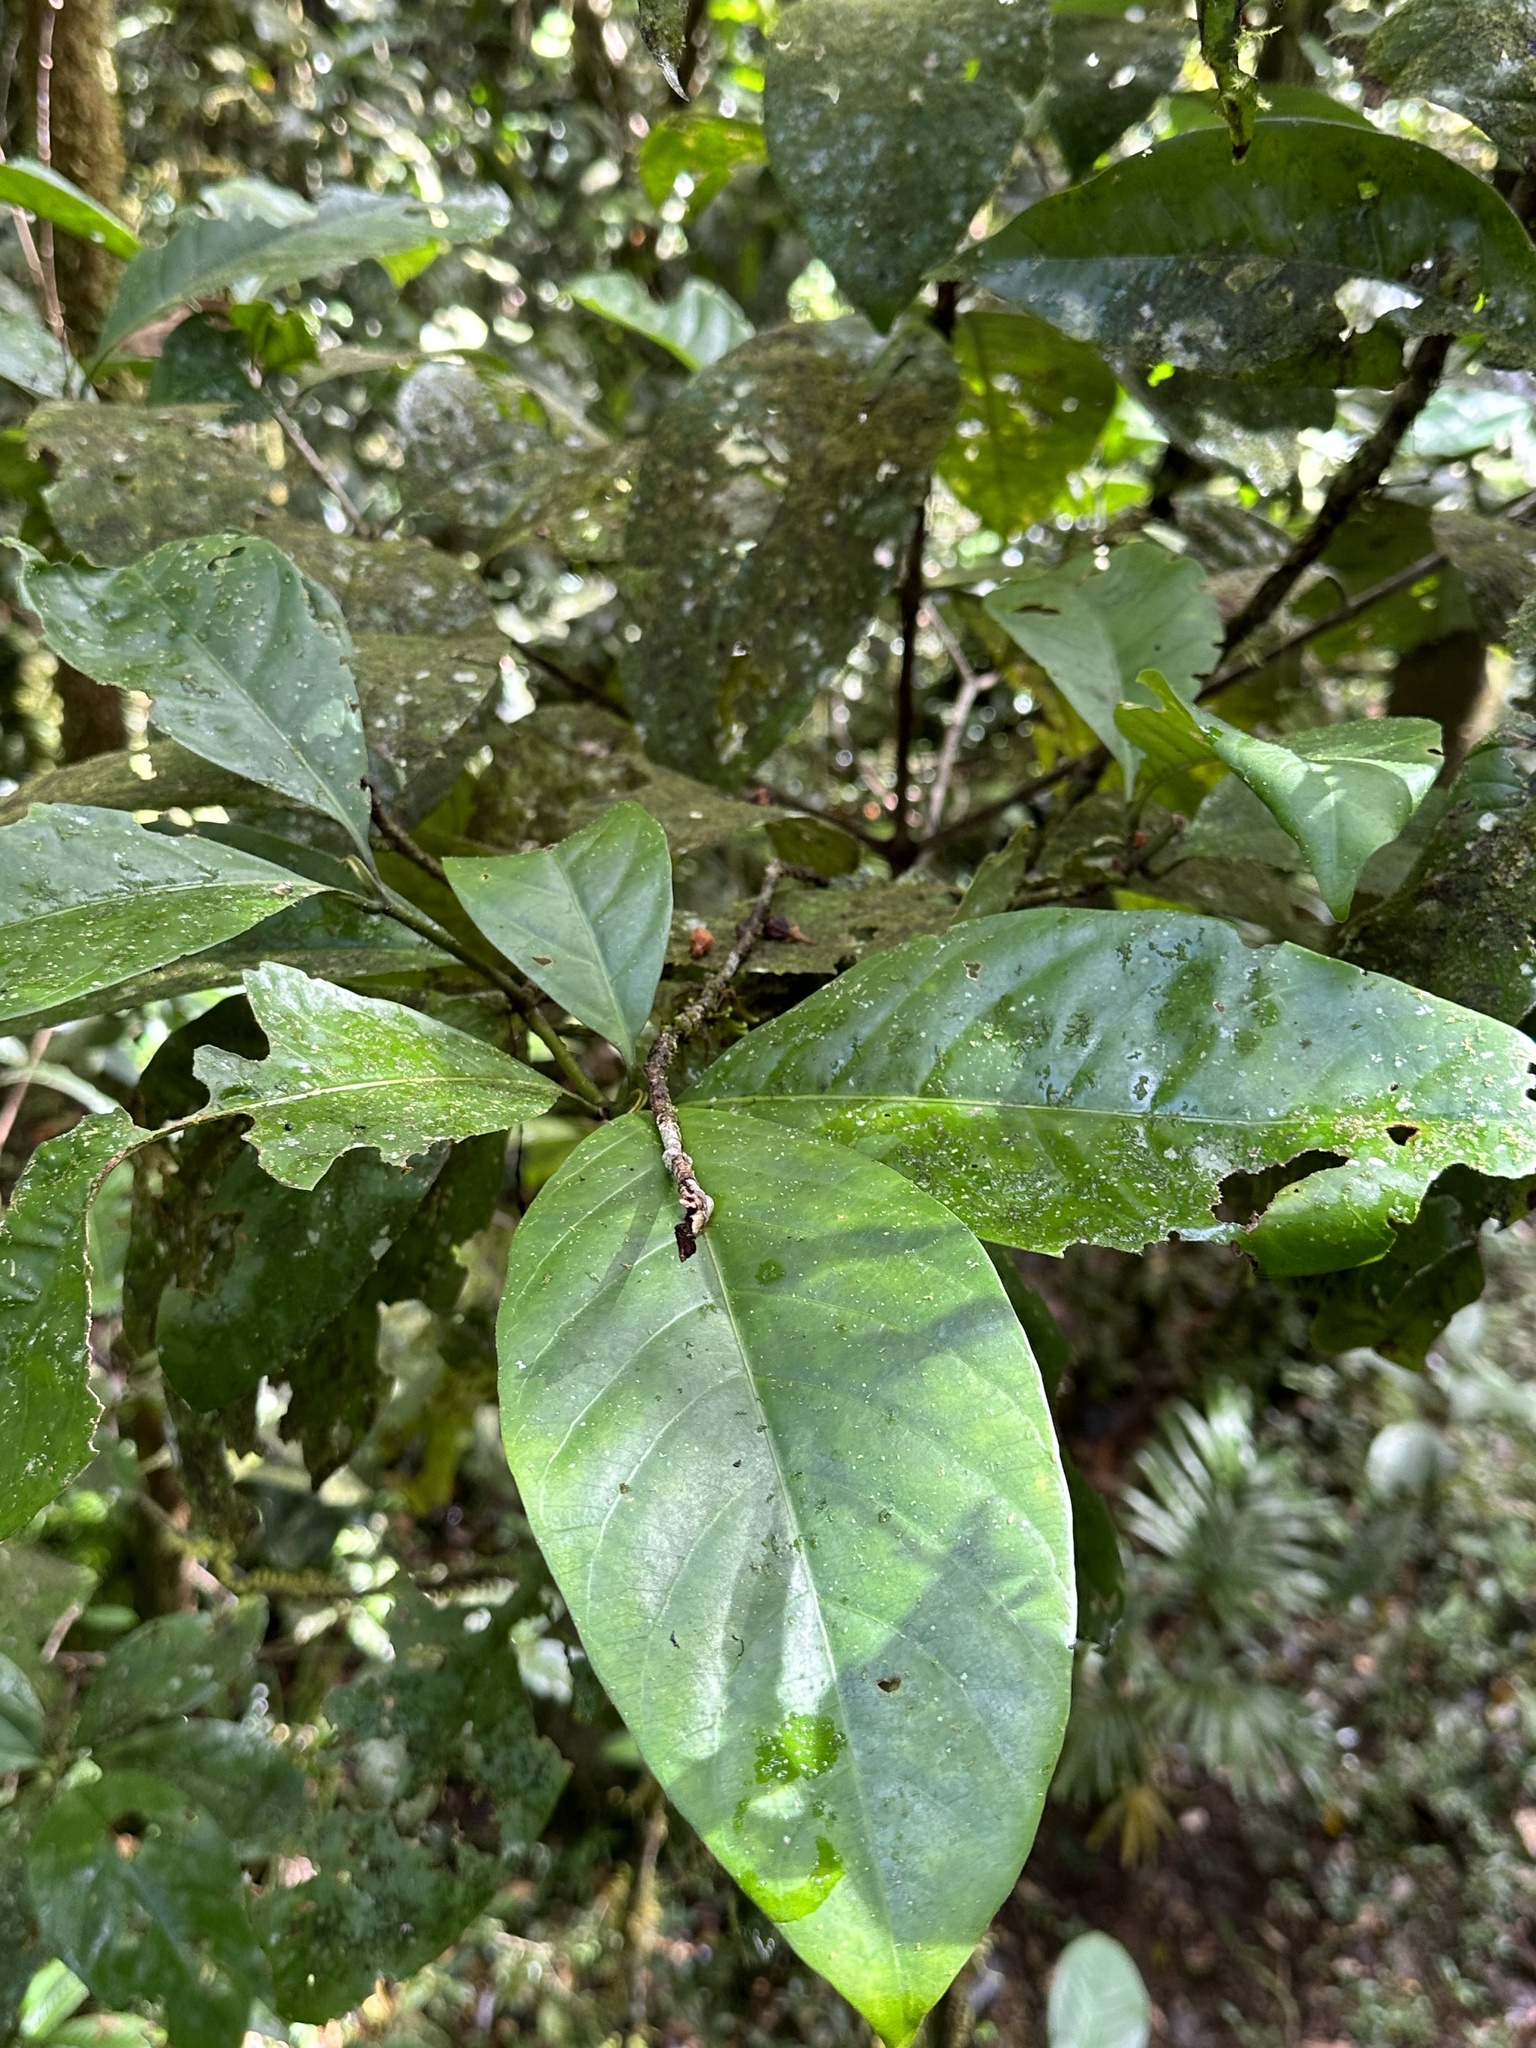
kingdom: Plantae
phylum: Tracheophyta
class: Magnoliopsida
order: Gentianales
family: Rubiaceae
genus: Atractocarpus
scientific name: Atractocarpus sessilis
